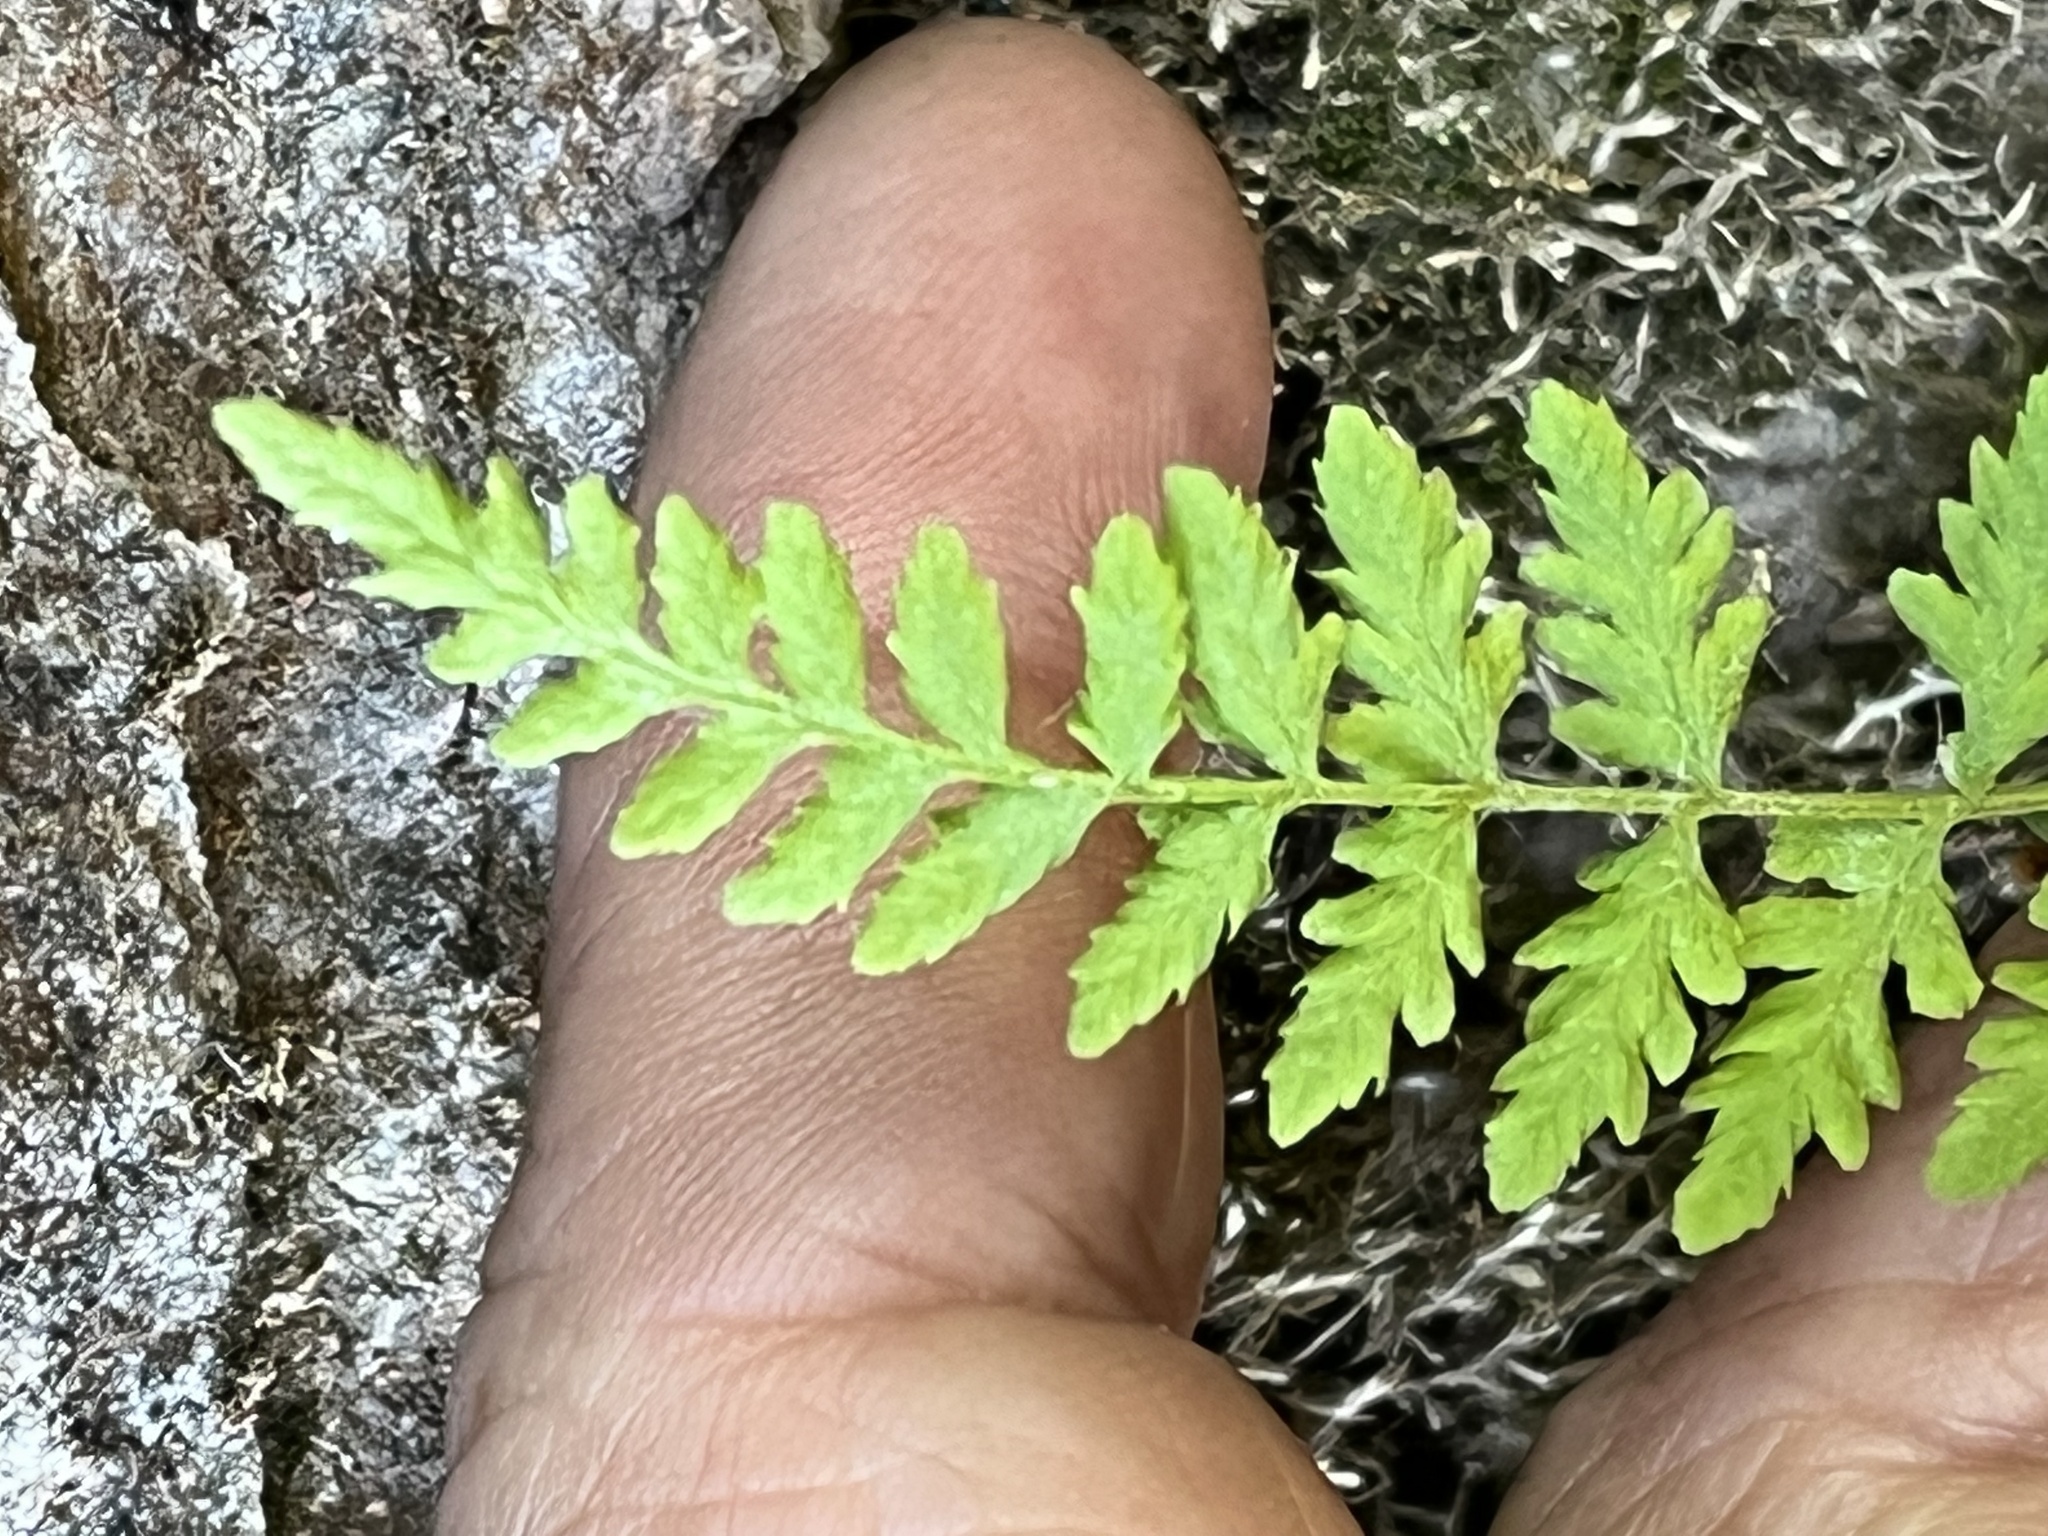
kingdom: Plantae
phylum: Tracheophyta
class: Polypodiopsida
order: Polypodiales
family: Cystopteridaceae
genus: Cystopteris
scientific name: Cystopteris fragilis
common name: Brittle bladder fern
